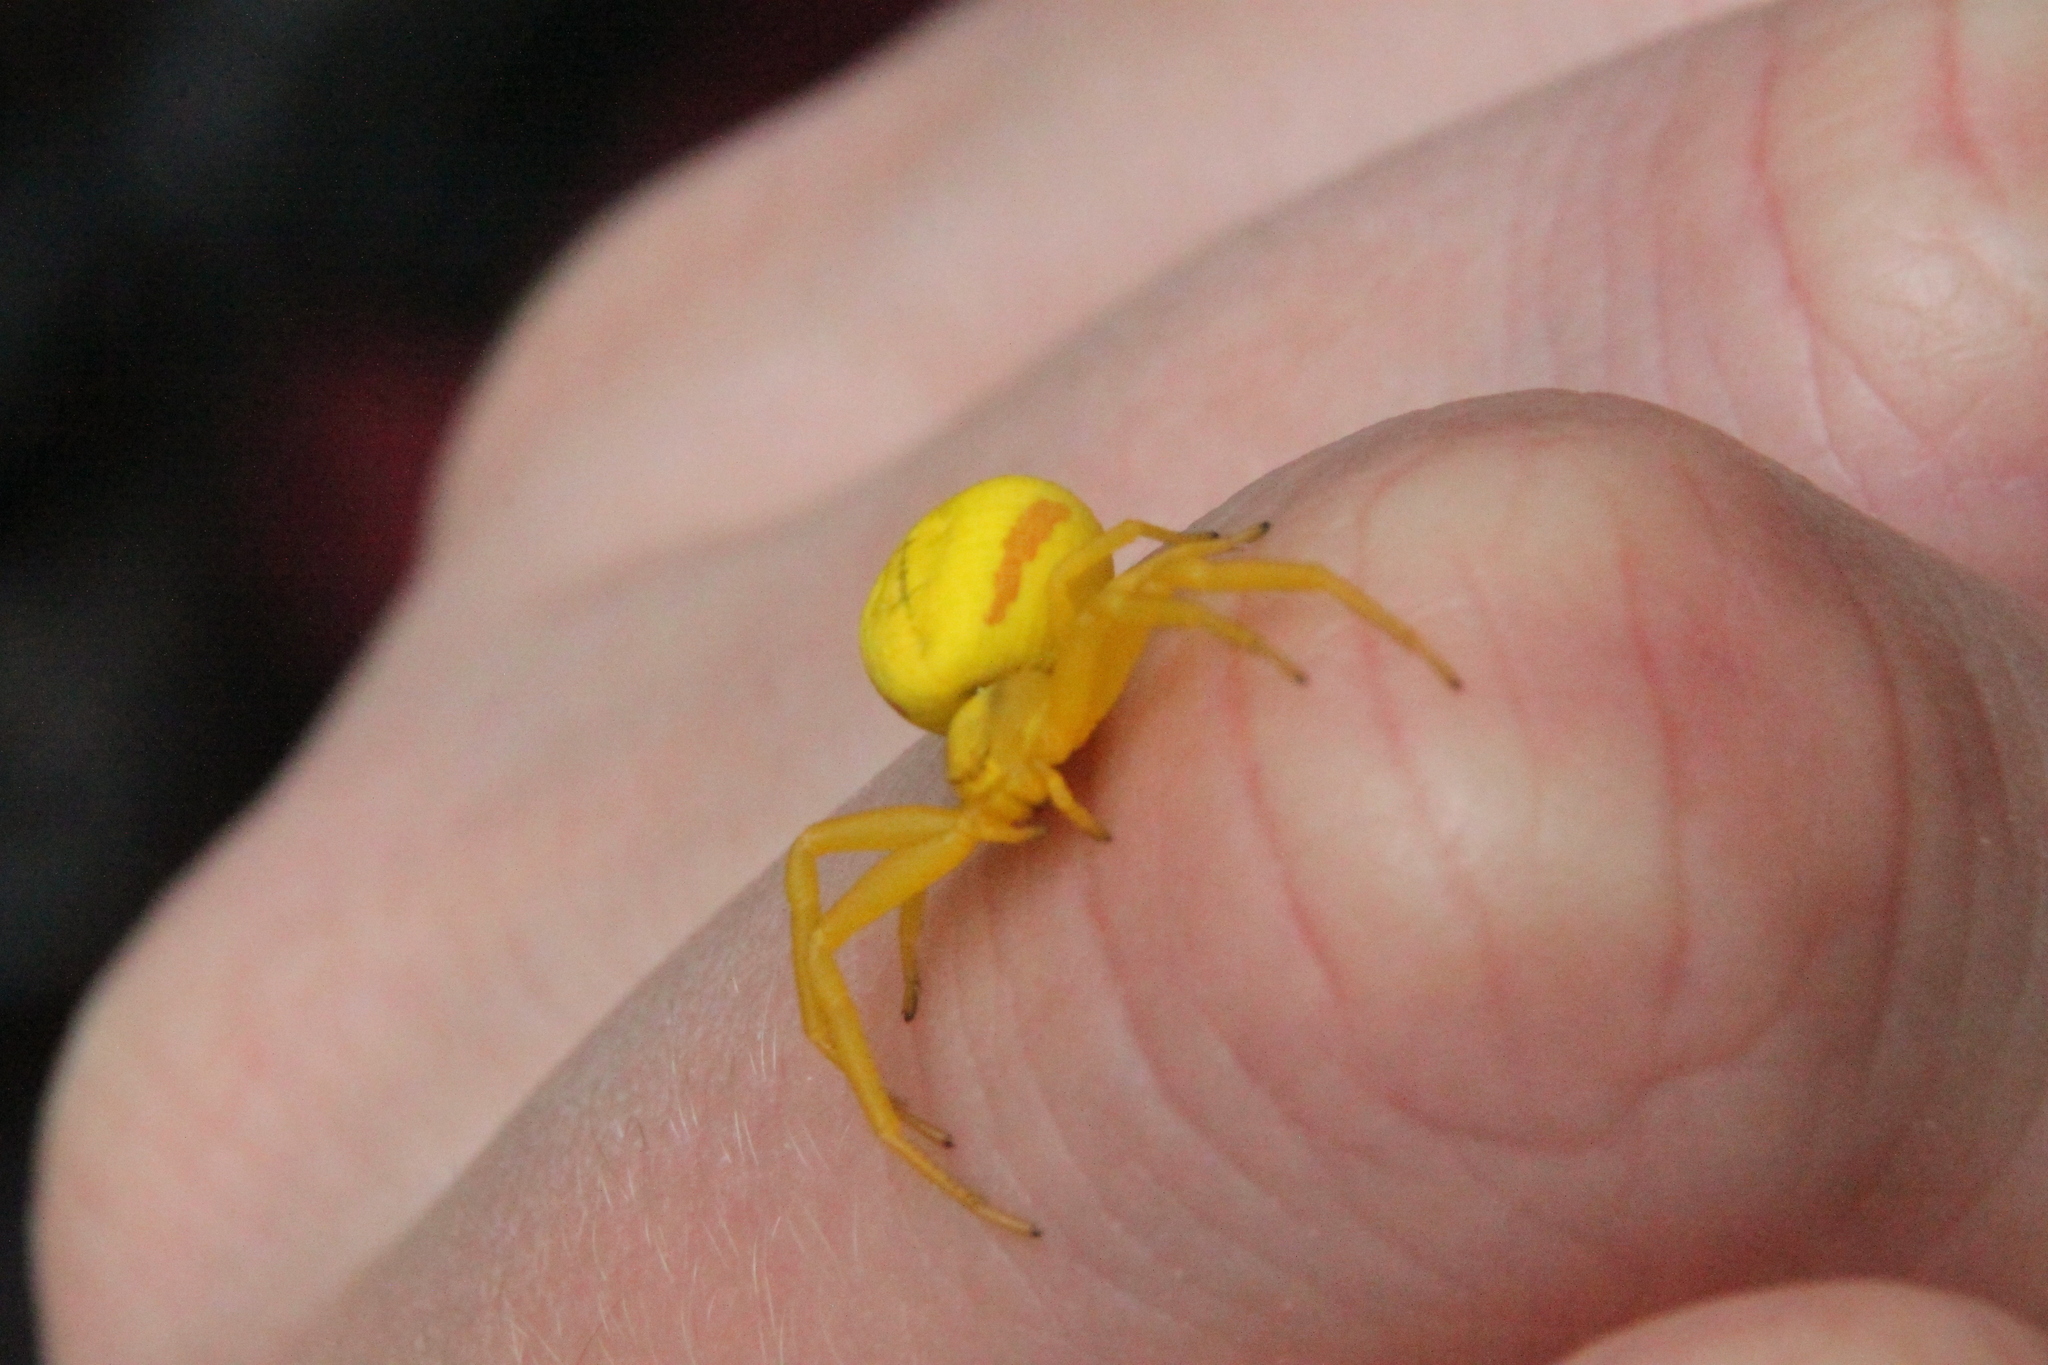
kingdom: Animalia
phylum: Arthropoda
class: Arachnida
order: Araneae
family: Thomisidae
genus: Misumena
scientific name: Misumena vatia
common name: Goldenrod crab spider
